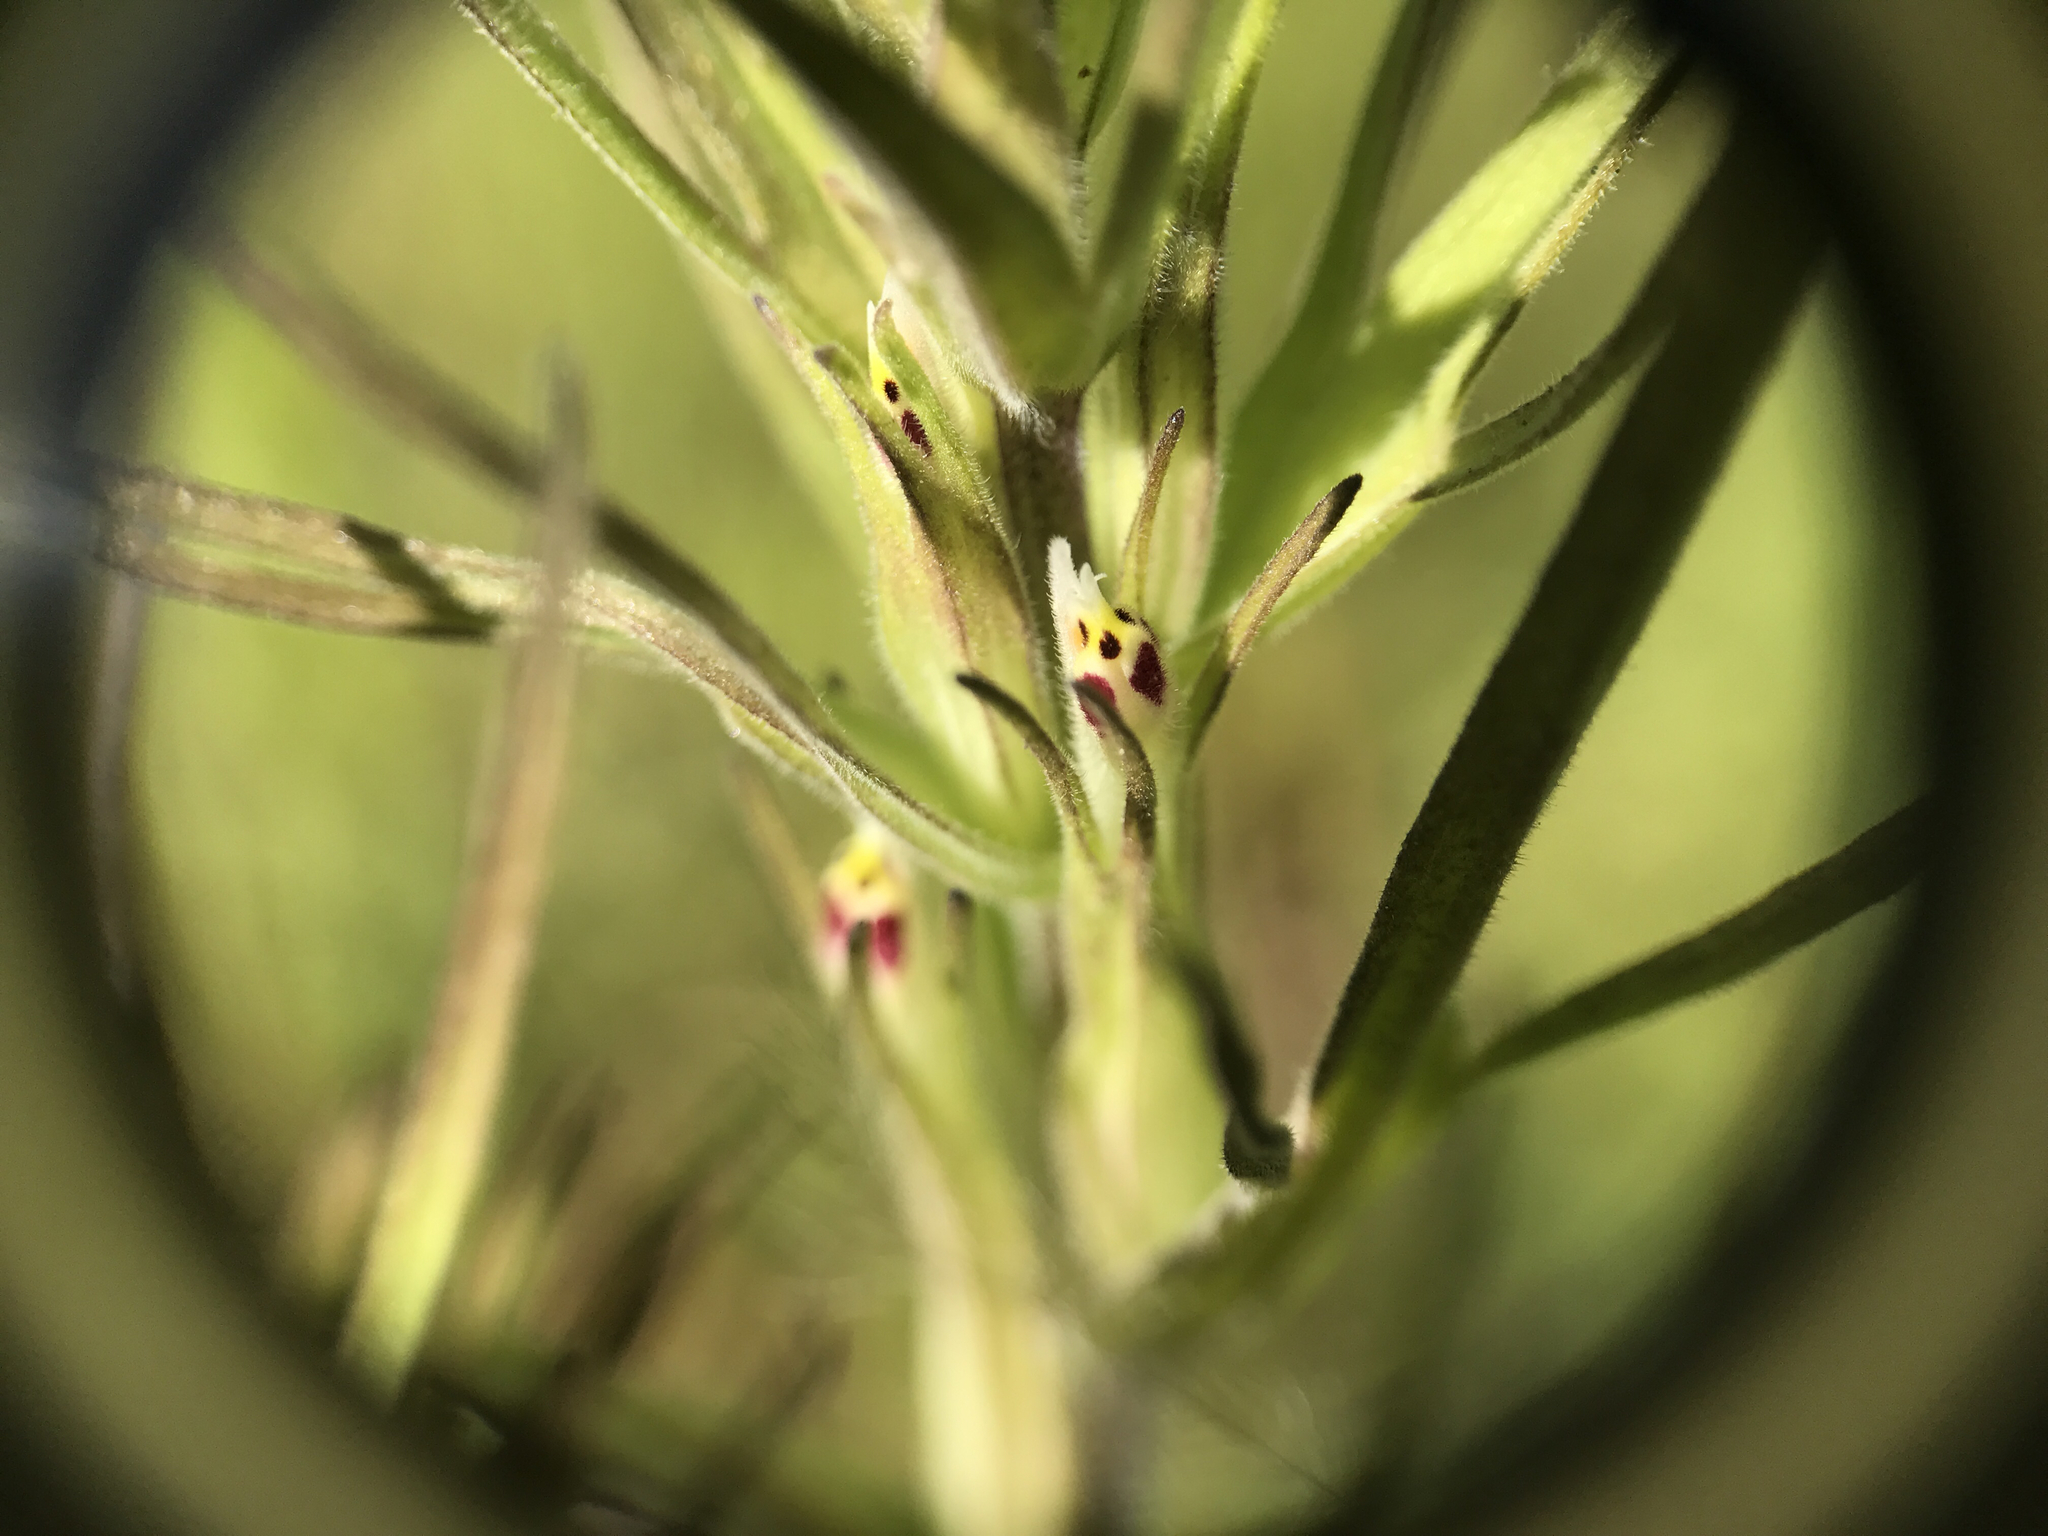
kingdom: Plantae
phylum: Tracheophyta
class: Magnoliopsida
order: Lamiales
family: Orobanchaceae
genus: Castilleja
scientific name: Castilleja attenuata
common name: Valley tassels
